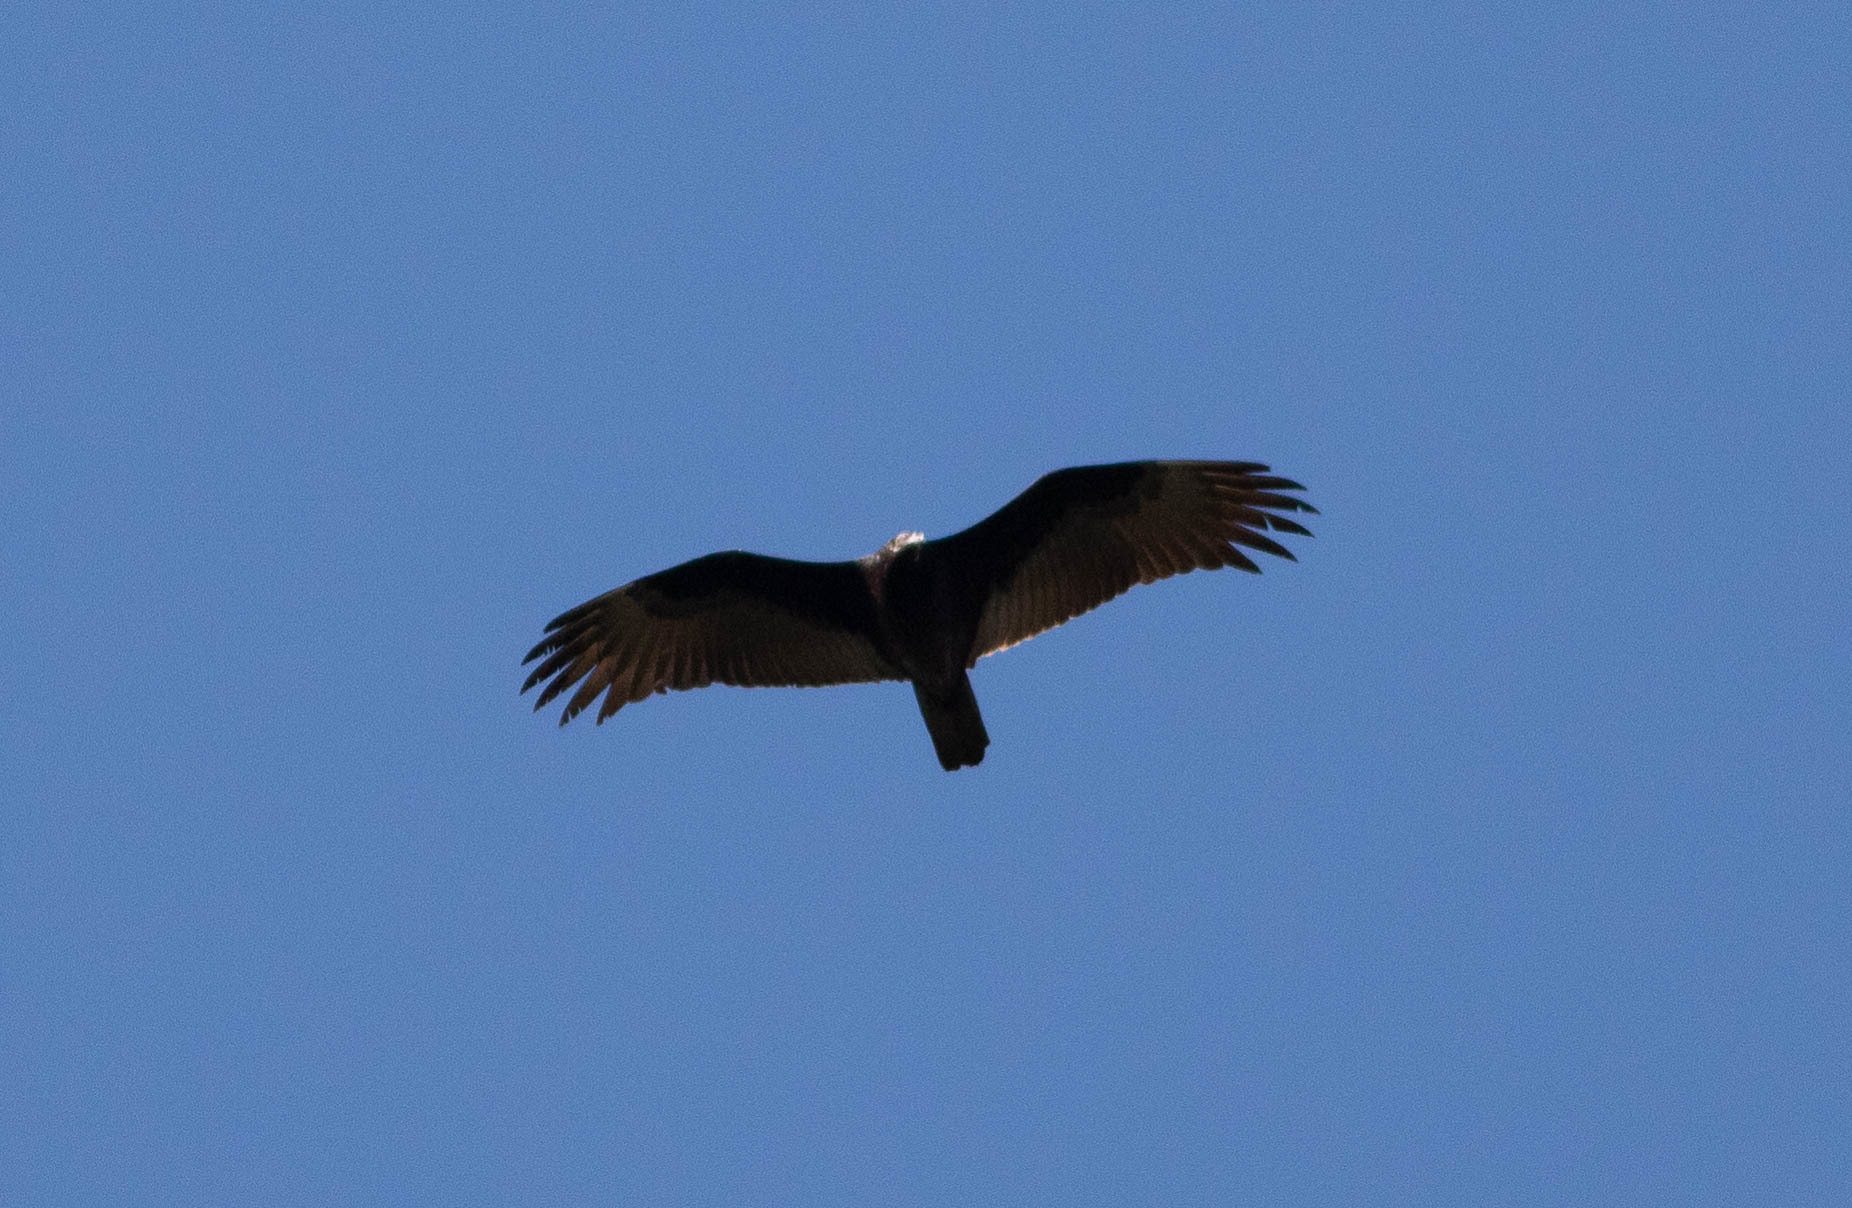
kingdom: Animalia
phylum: Chordata
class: Aves
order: Accipitriformes
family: Cathartidae
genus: Cathartes
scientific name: Cathartes aura
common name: Turkey vulture
